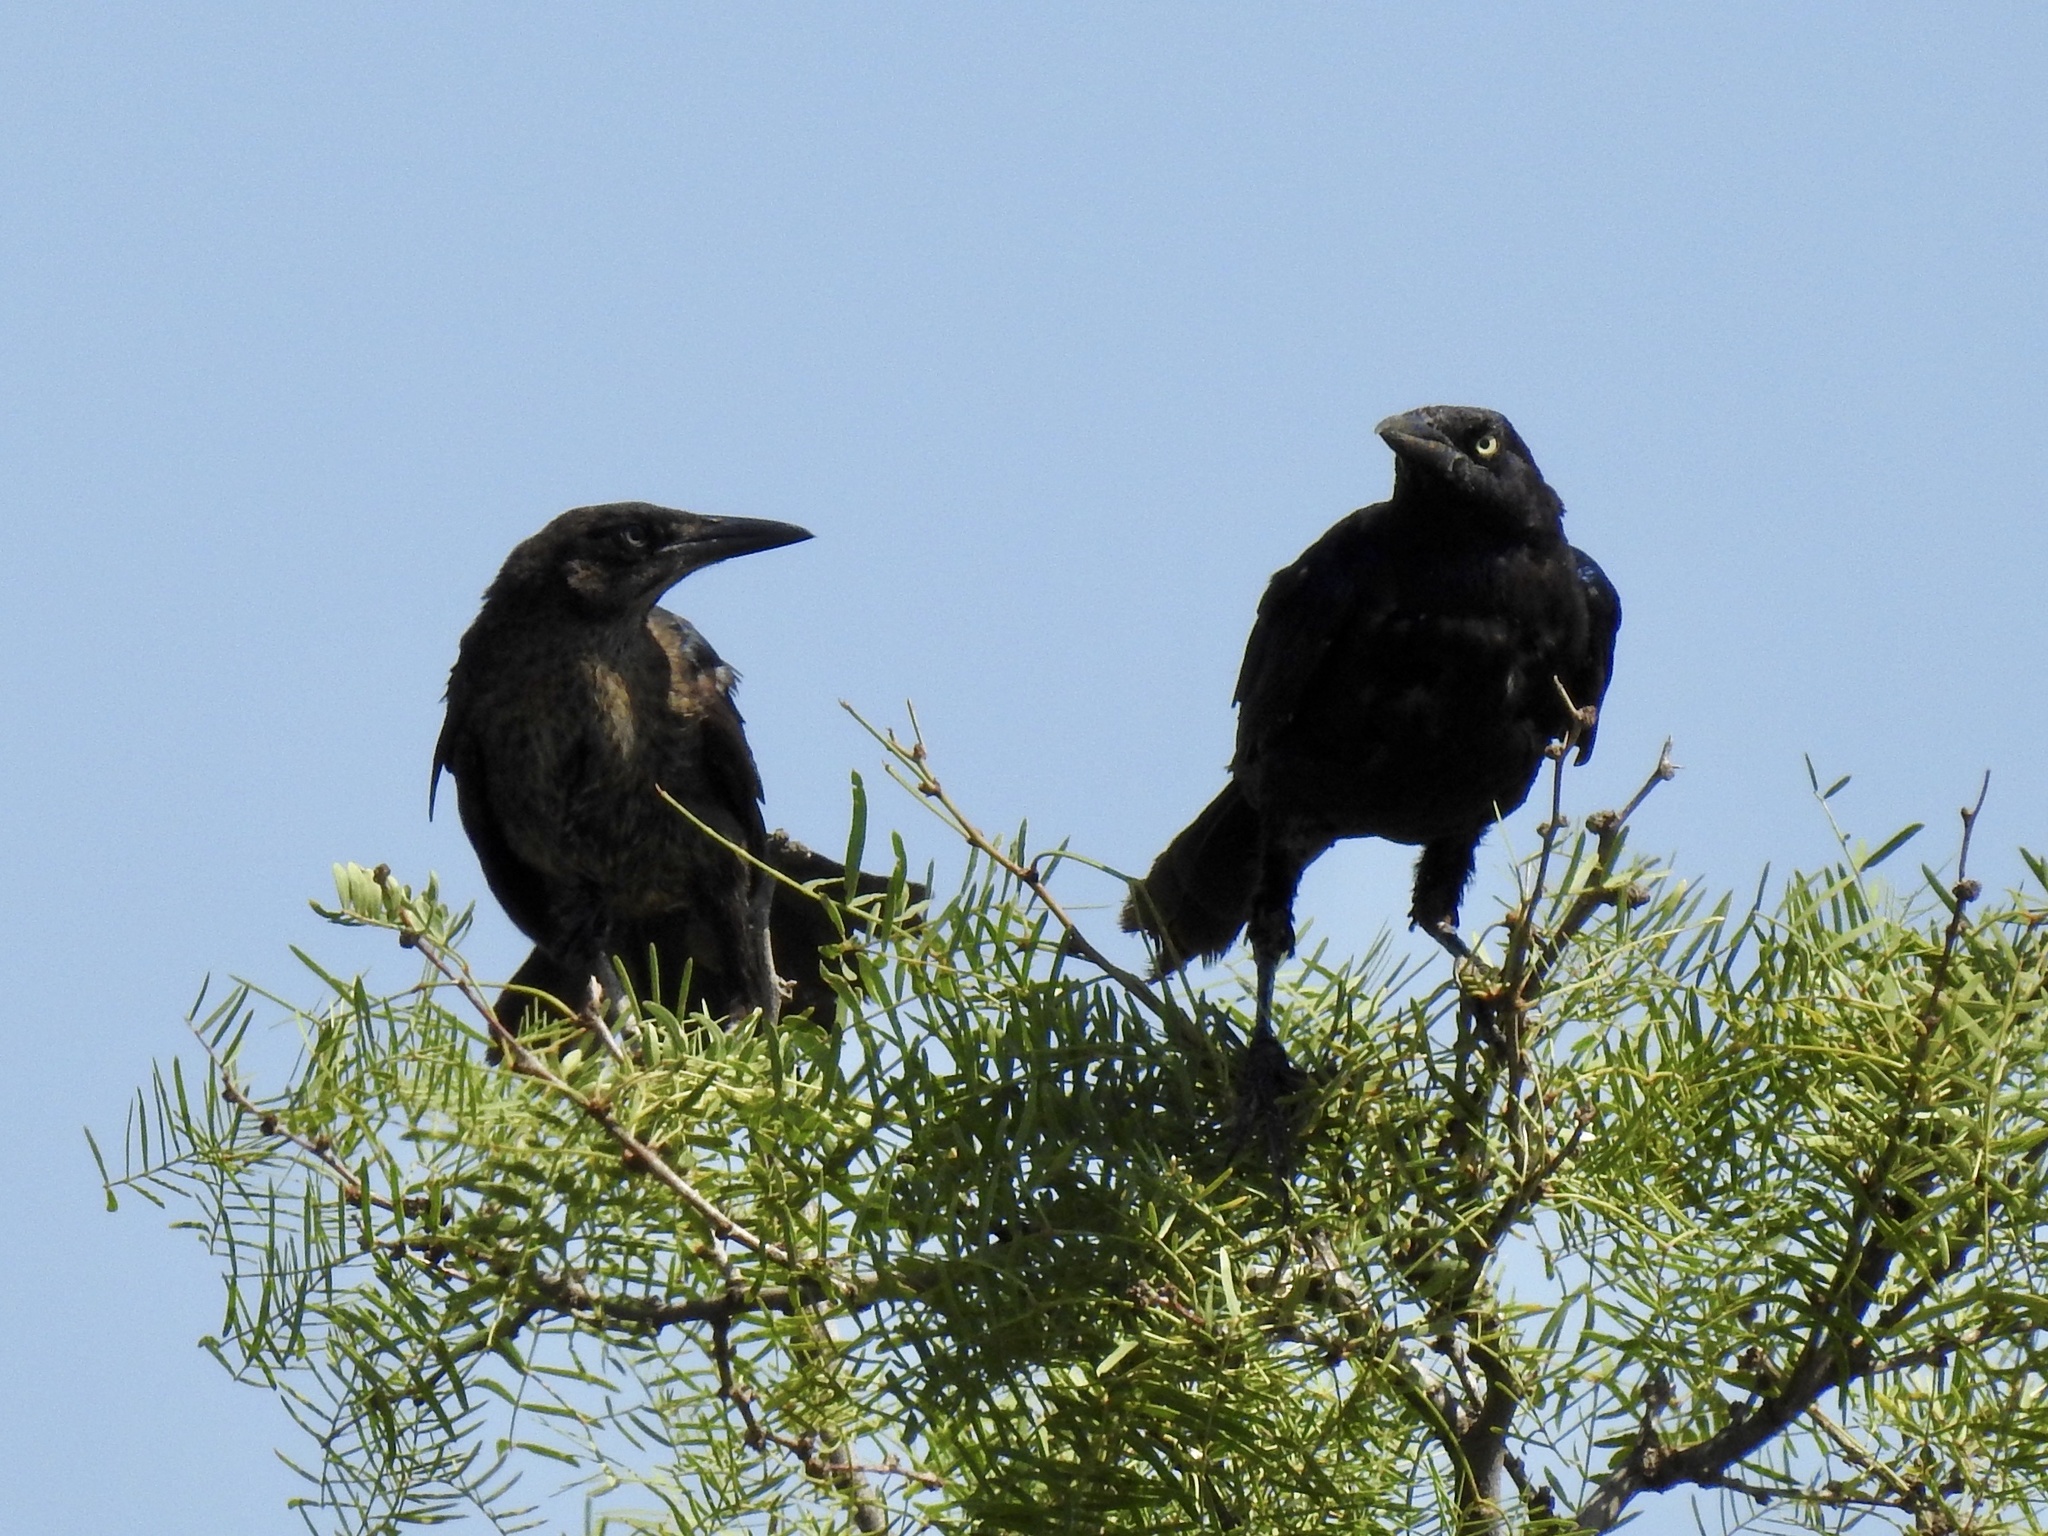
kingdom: Animalia
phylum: Chordata
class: Aves
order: Passeriformes
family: Icteridae
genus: Quiscalus
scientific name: Quiscalus mexicanus
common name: Great-tailed grackle
